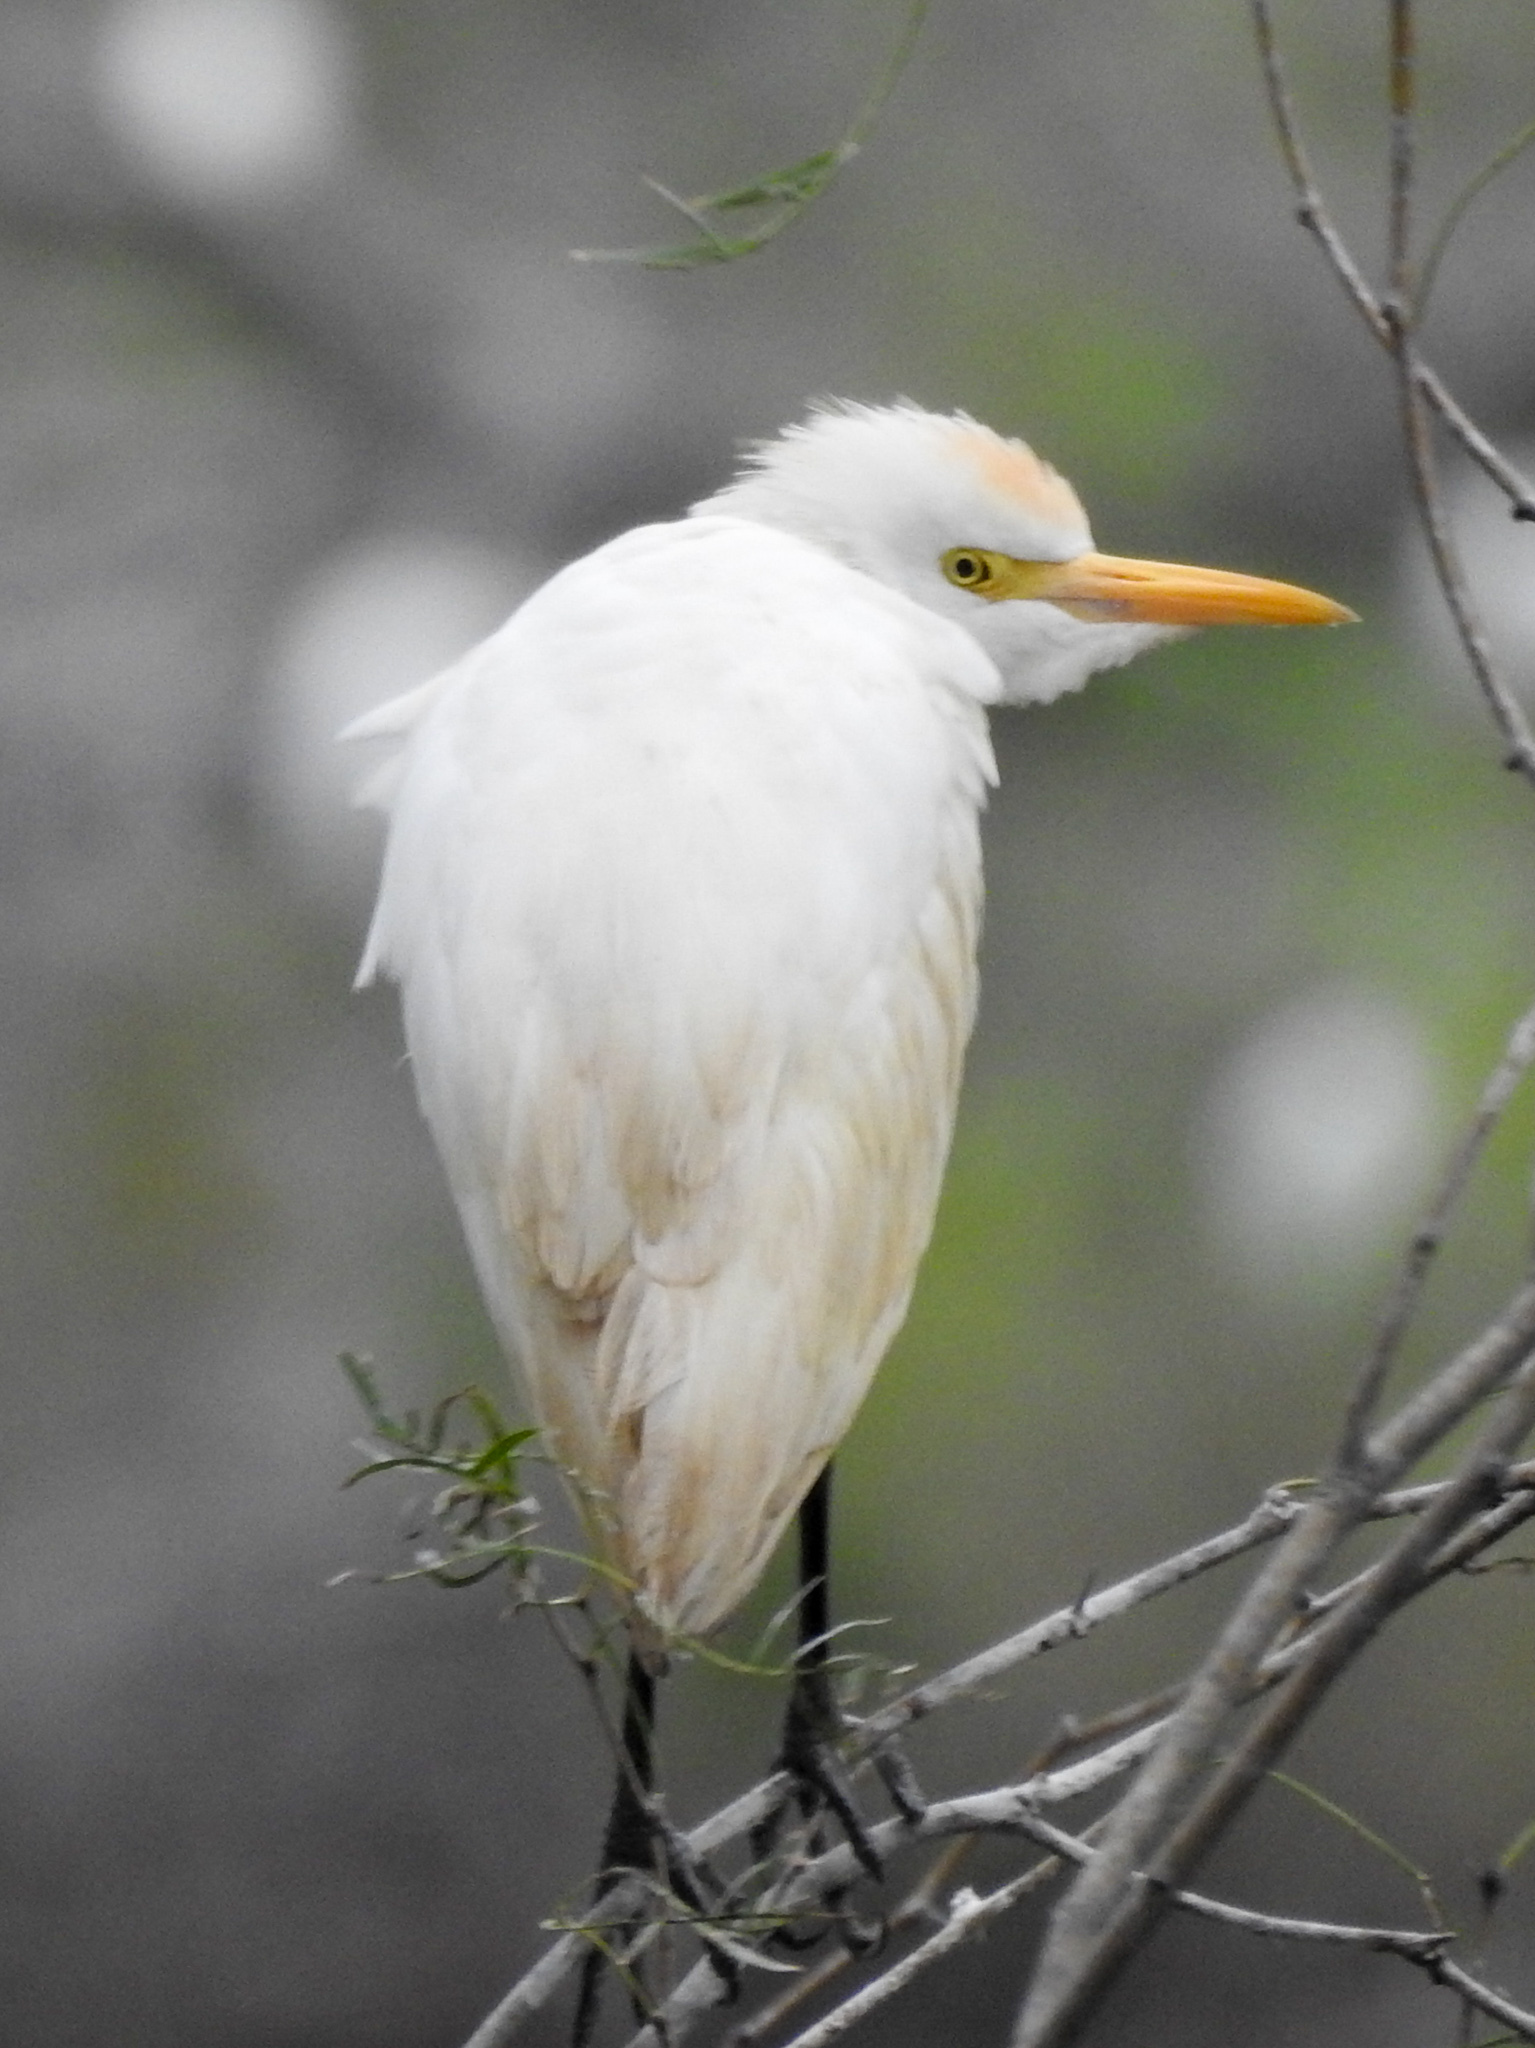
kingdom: Animalia
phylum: Chordata
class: Aves
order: Pelecaniformes
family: Ardeidae
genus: Bubulcus
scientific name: Bubulcus ibis
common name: Cattle egret
